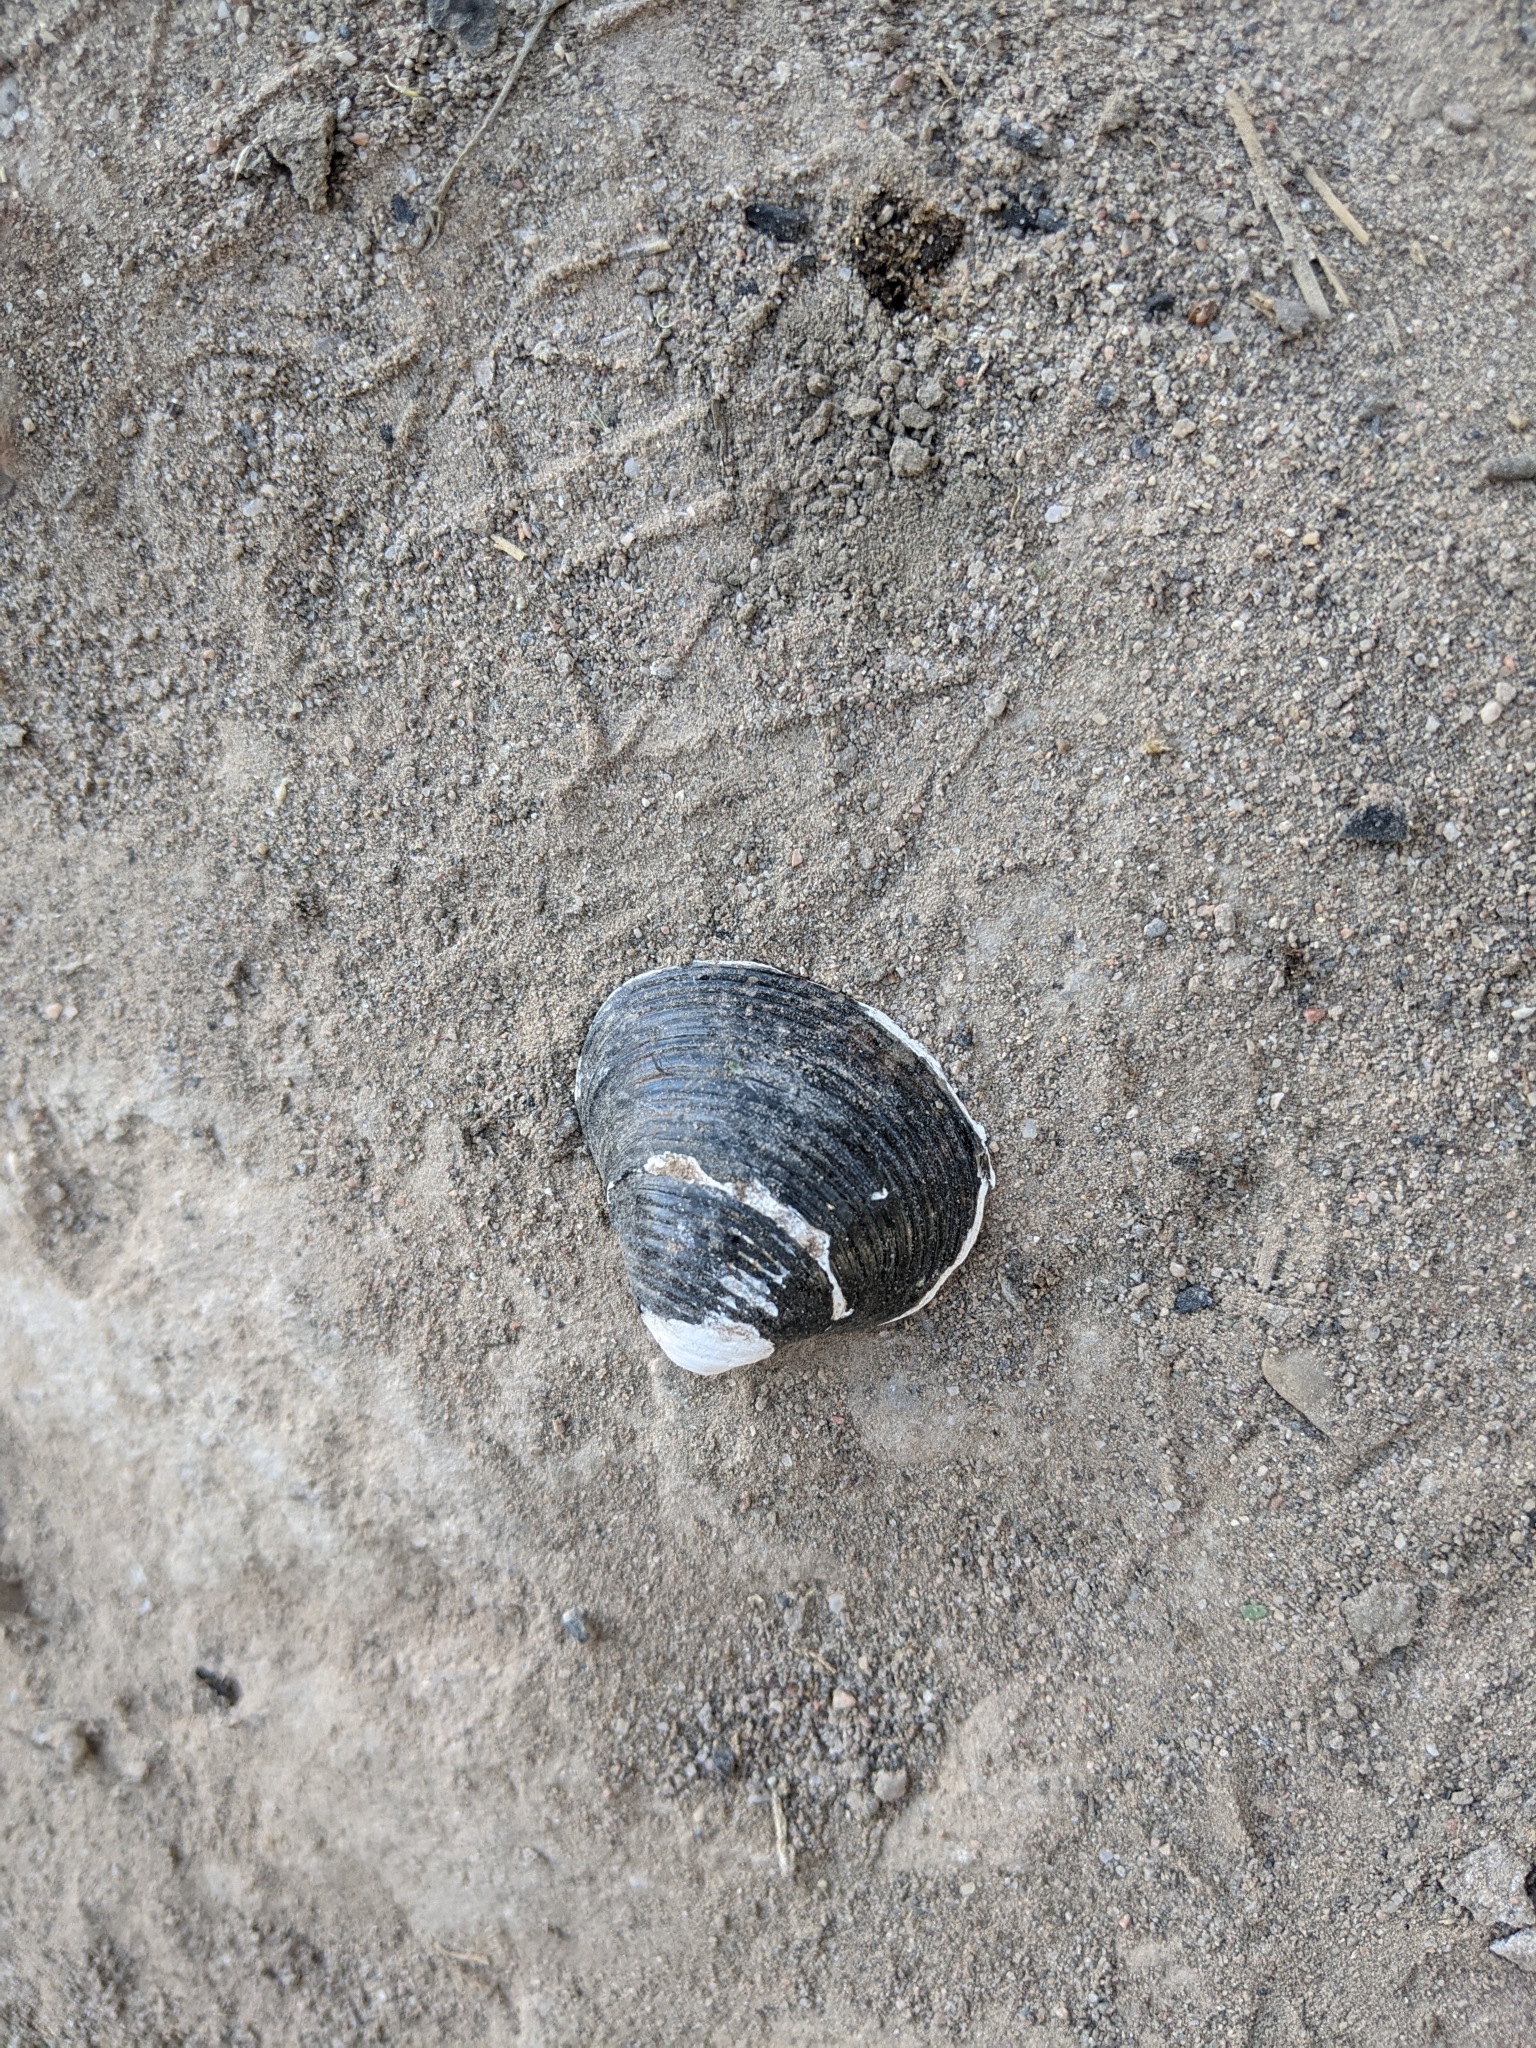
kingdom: Animalia
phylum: Mollusca
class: Bivalvia
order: Venerida
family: Cyrenidae
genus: Corbicula
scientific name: Corbicula fluminea
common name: Asian clam
